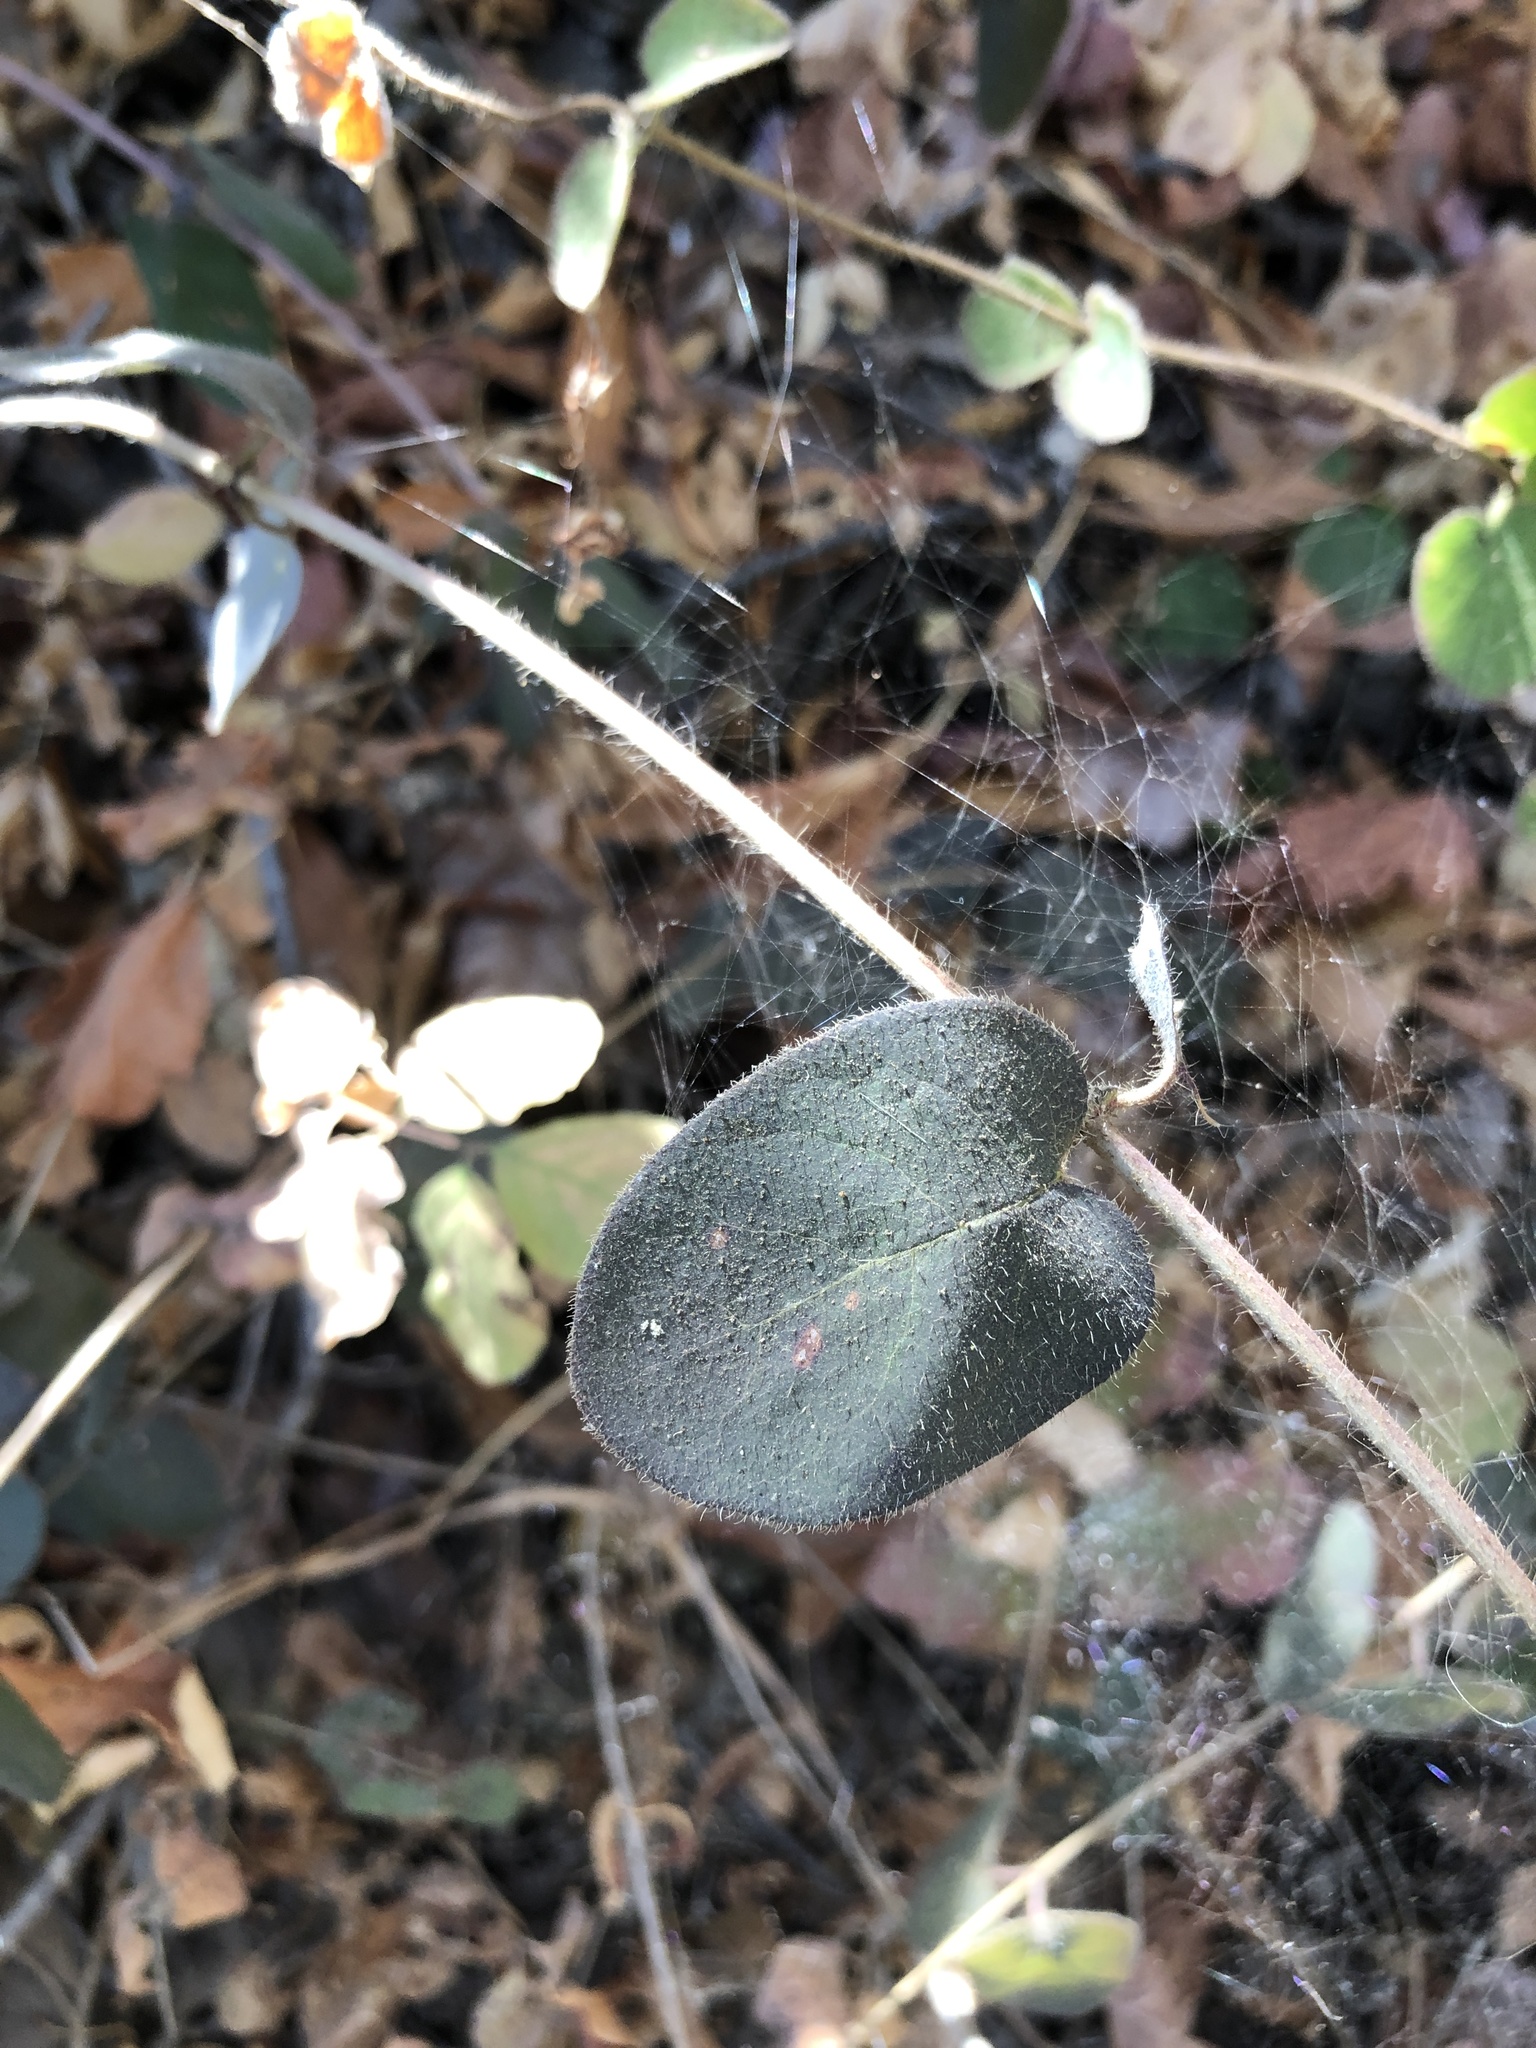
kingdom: Plantae
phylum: Tracheophyta
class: Magnoliopsida
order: Dipsacales
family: Caprifoliaceae
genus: Lonicera
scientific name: Lonicera hispidula
